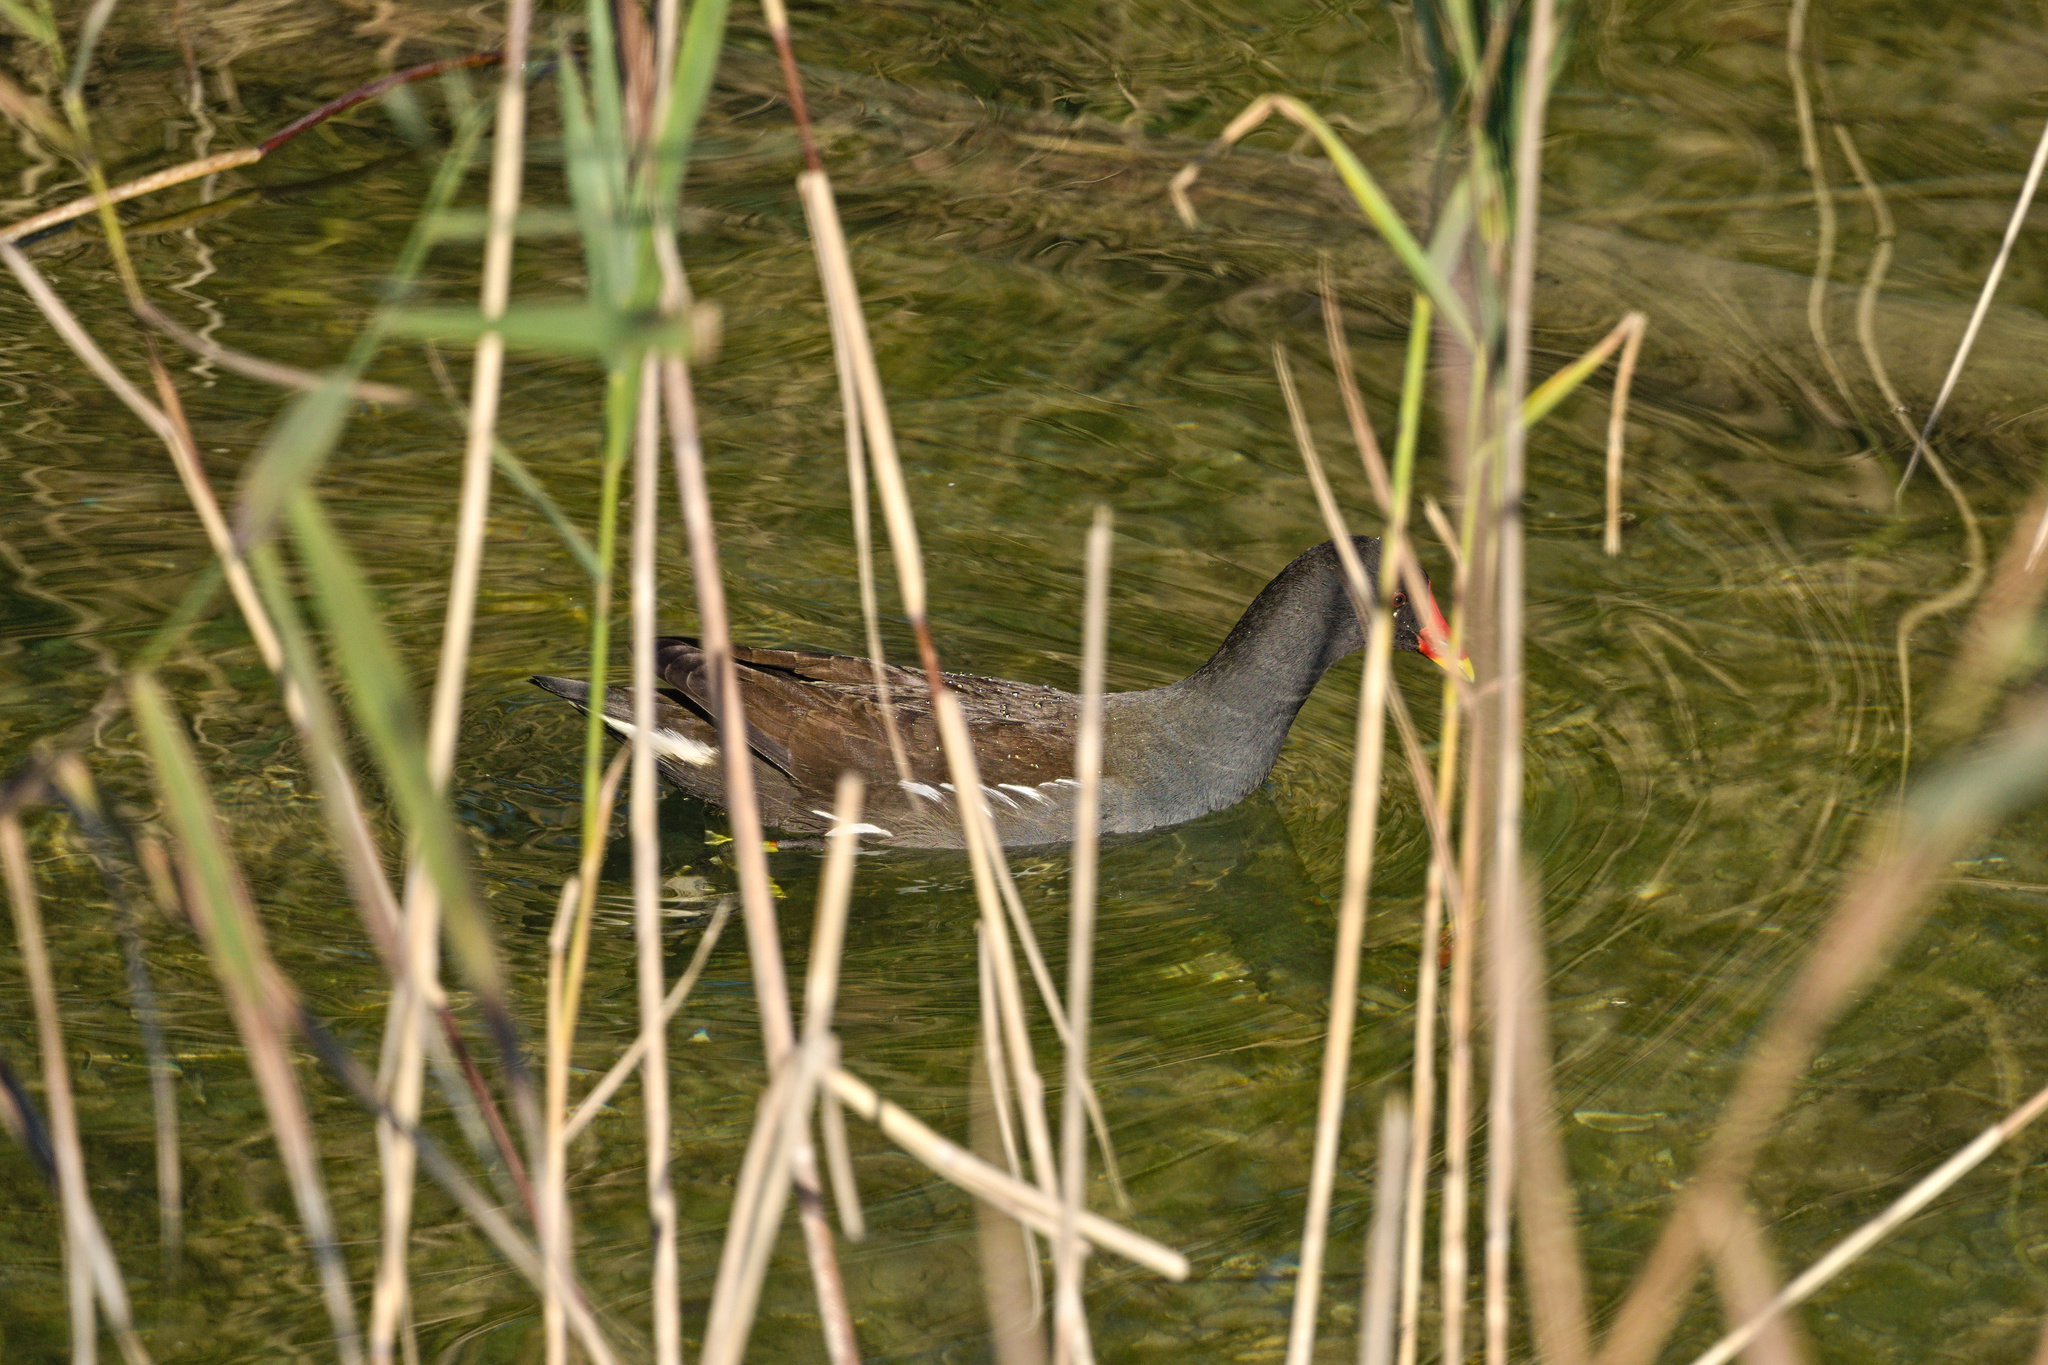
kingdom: Animalia
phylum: Chordata
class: Aves
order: Gruiformes
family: Rallidae
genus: Gallinula
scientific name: Gallinula chloropus
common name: Common moorhen
